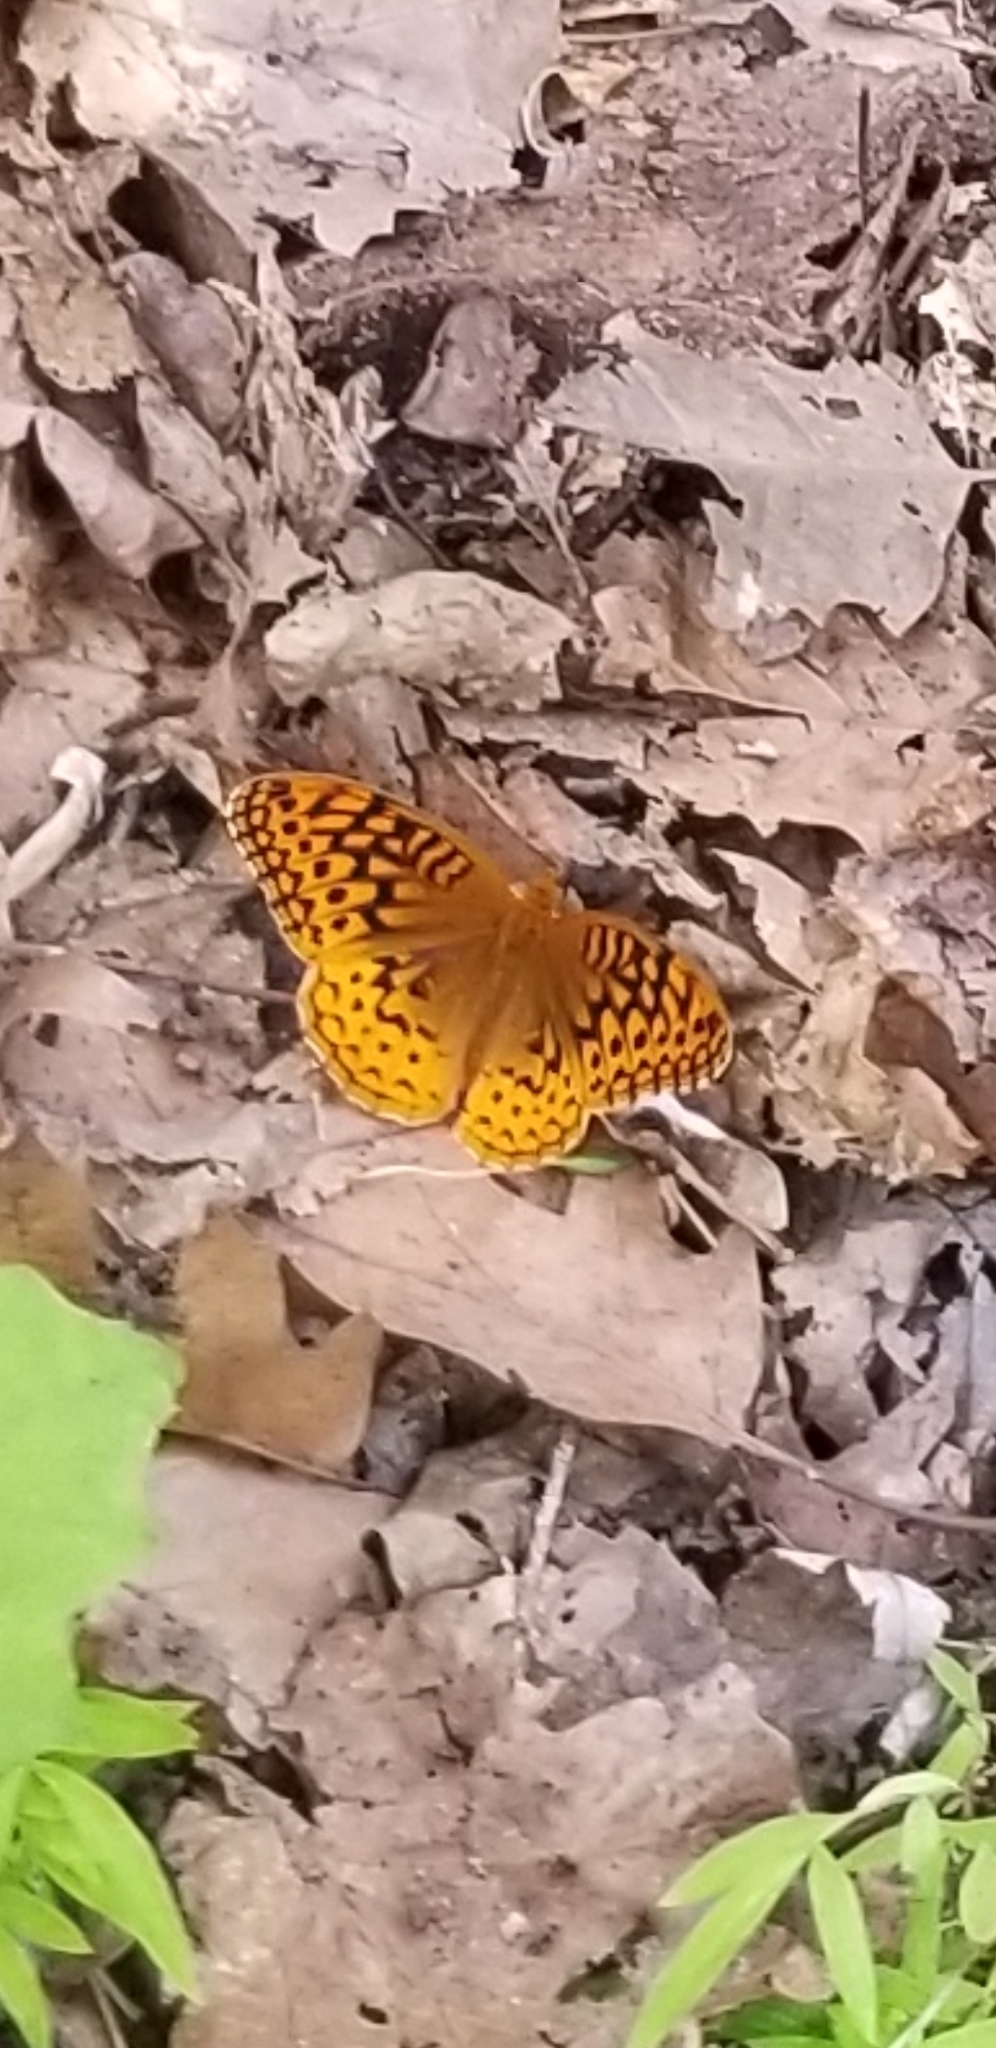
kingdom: Animalia
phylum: Arthropoda
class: Insecta
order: Lepidoptera
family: Nymphalidae
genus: Speyeria
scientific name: Speyeria cybele
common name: Great spangled fritillary
